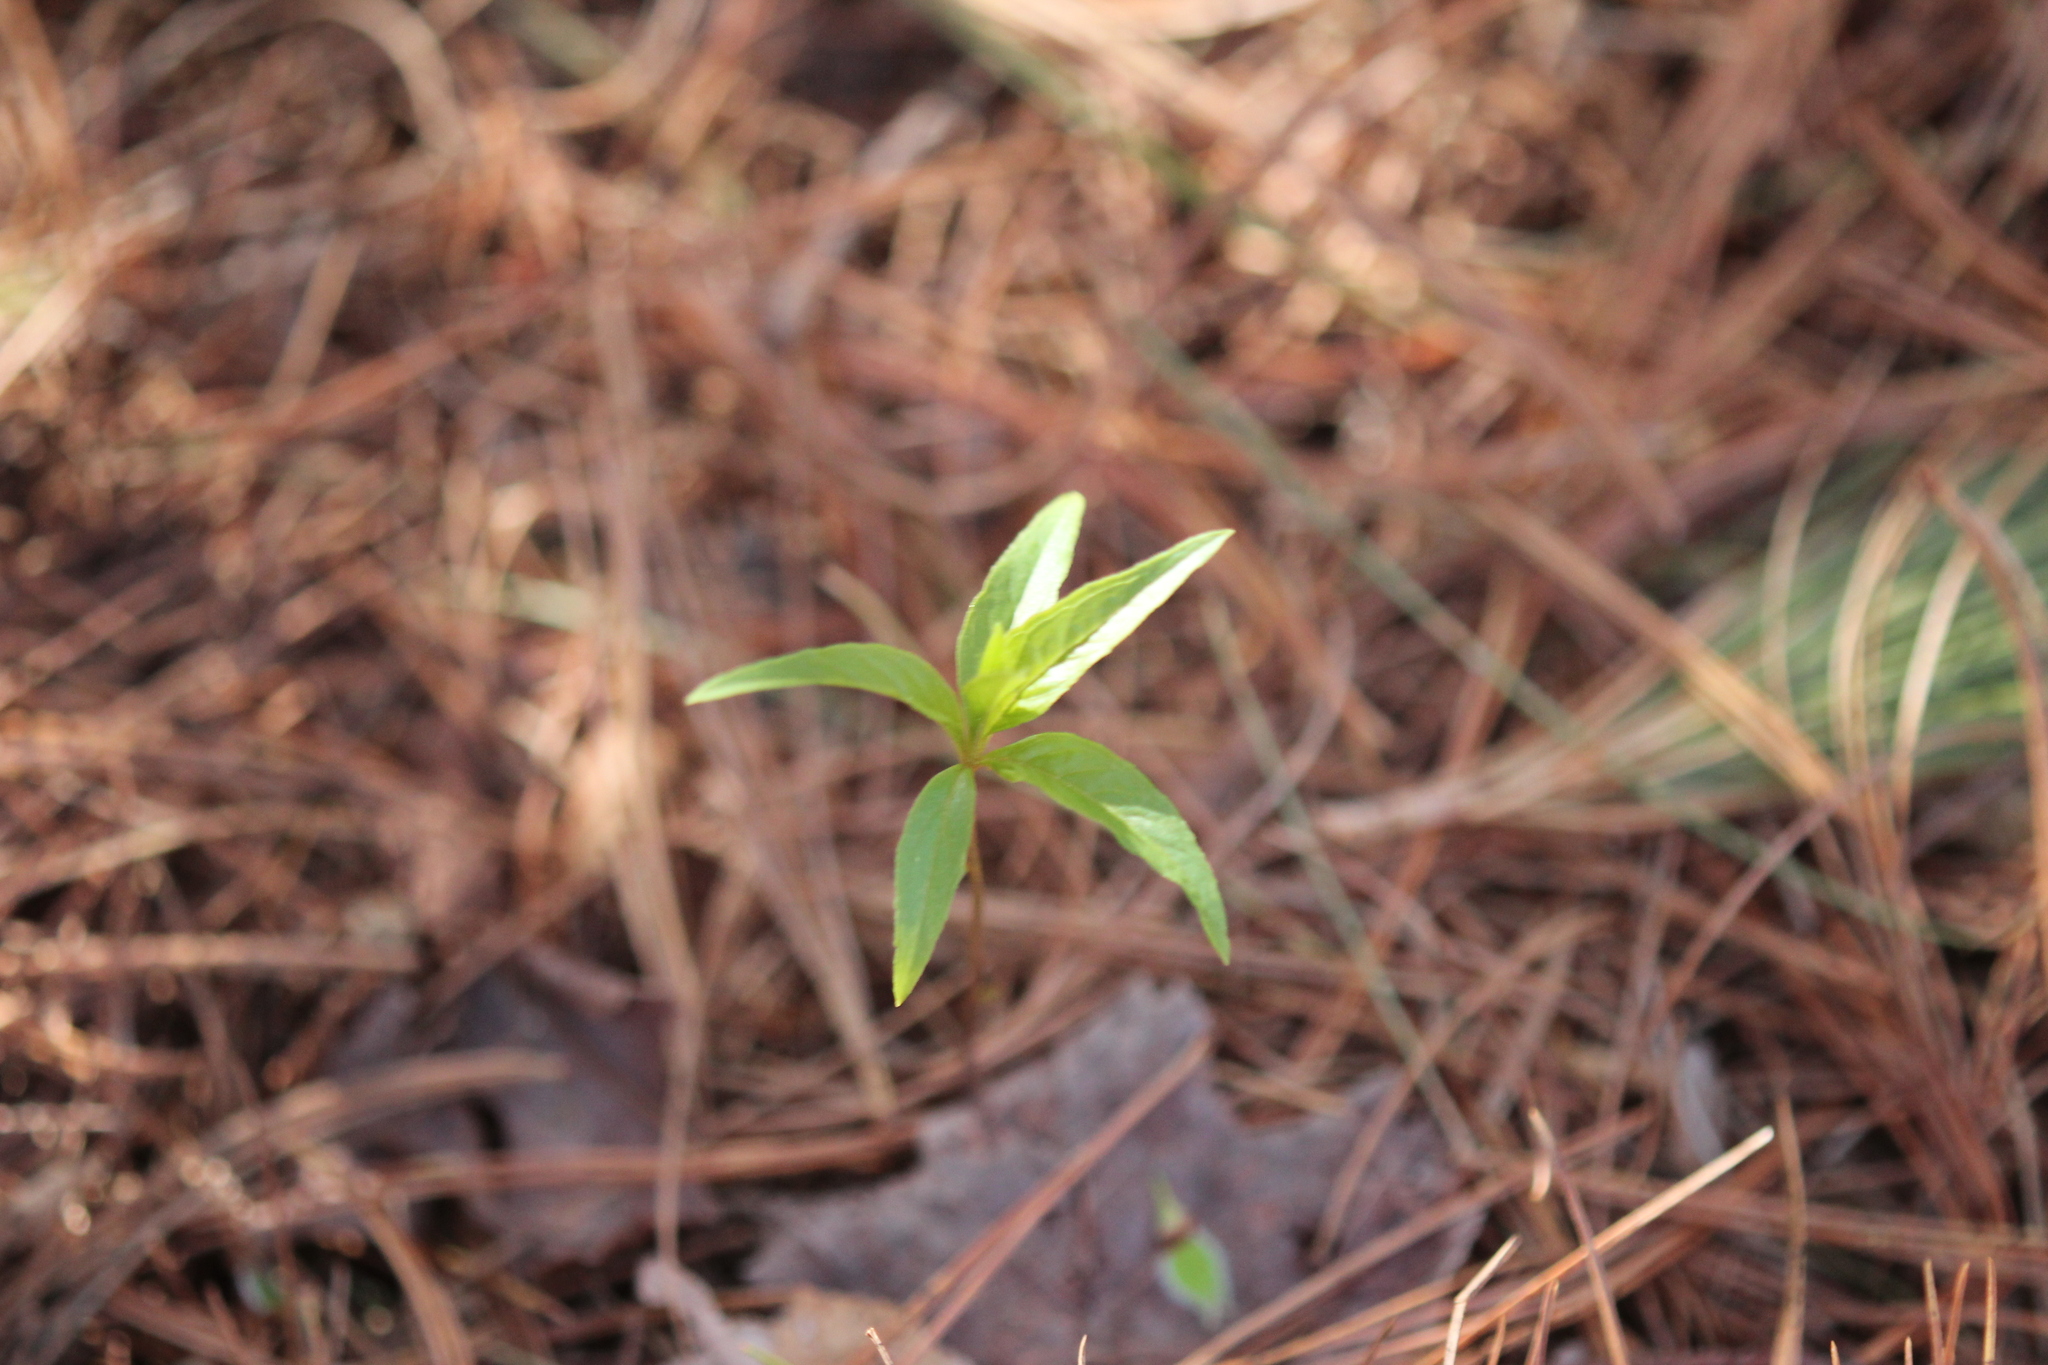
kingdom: Plantae
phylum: Tracheophyta
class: Magnoliopsida
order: Ericales
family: Primulaceae
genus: Lysimachia
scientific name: Lysimachia borealis
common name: American starflower
